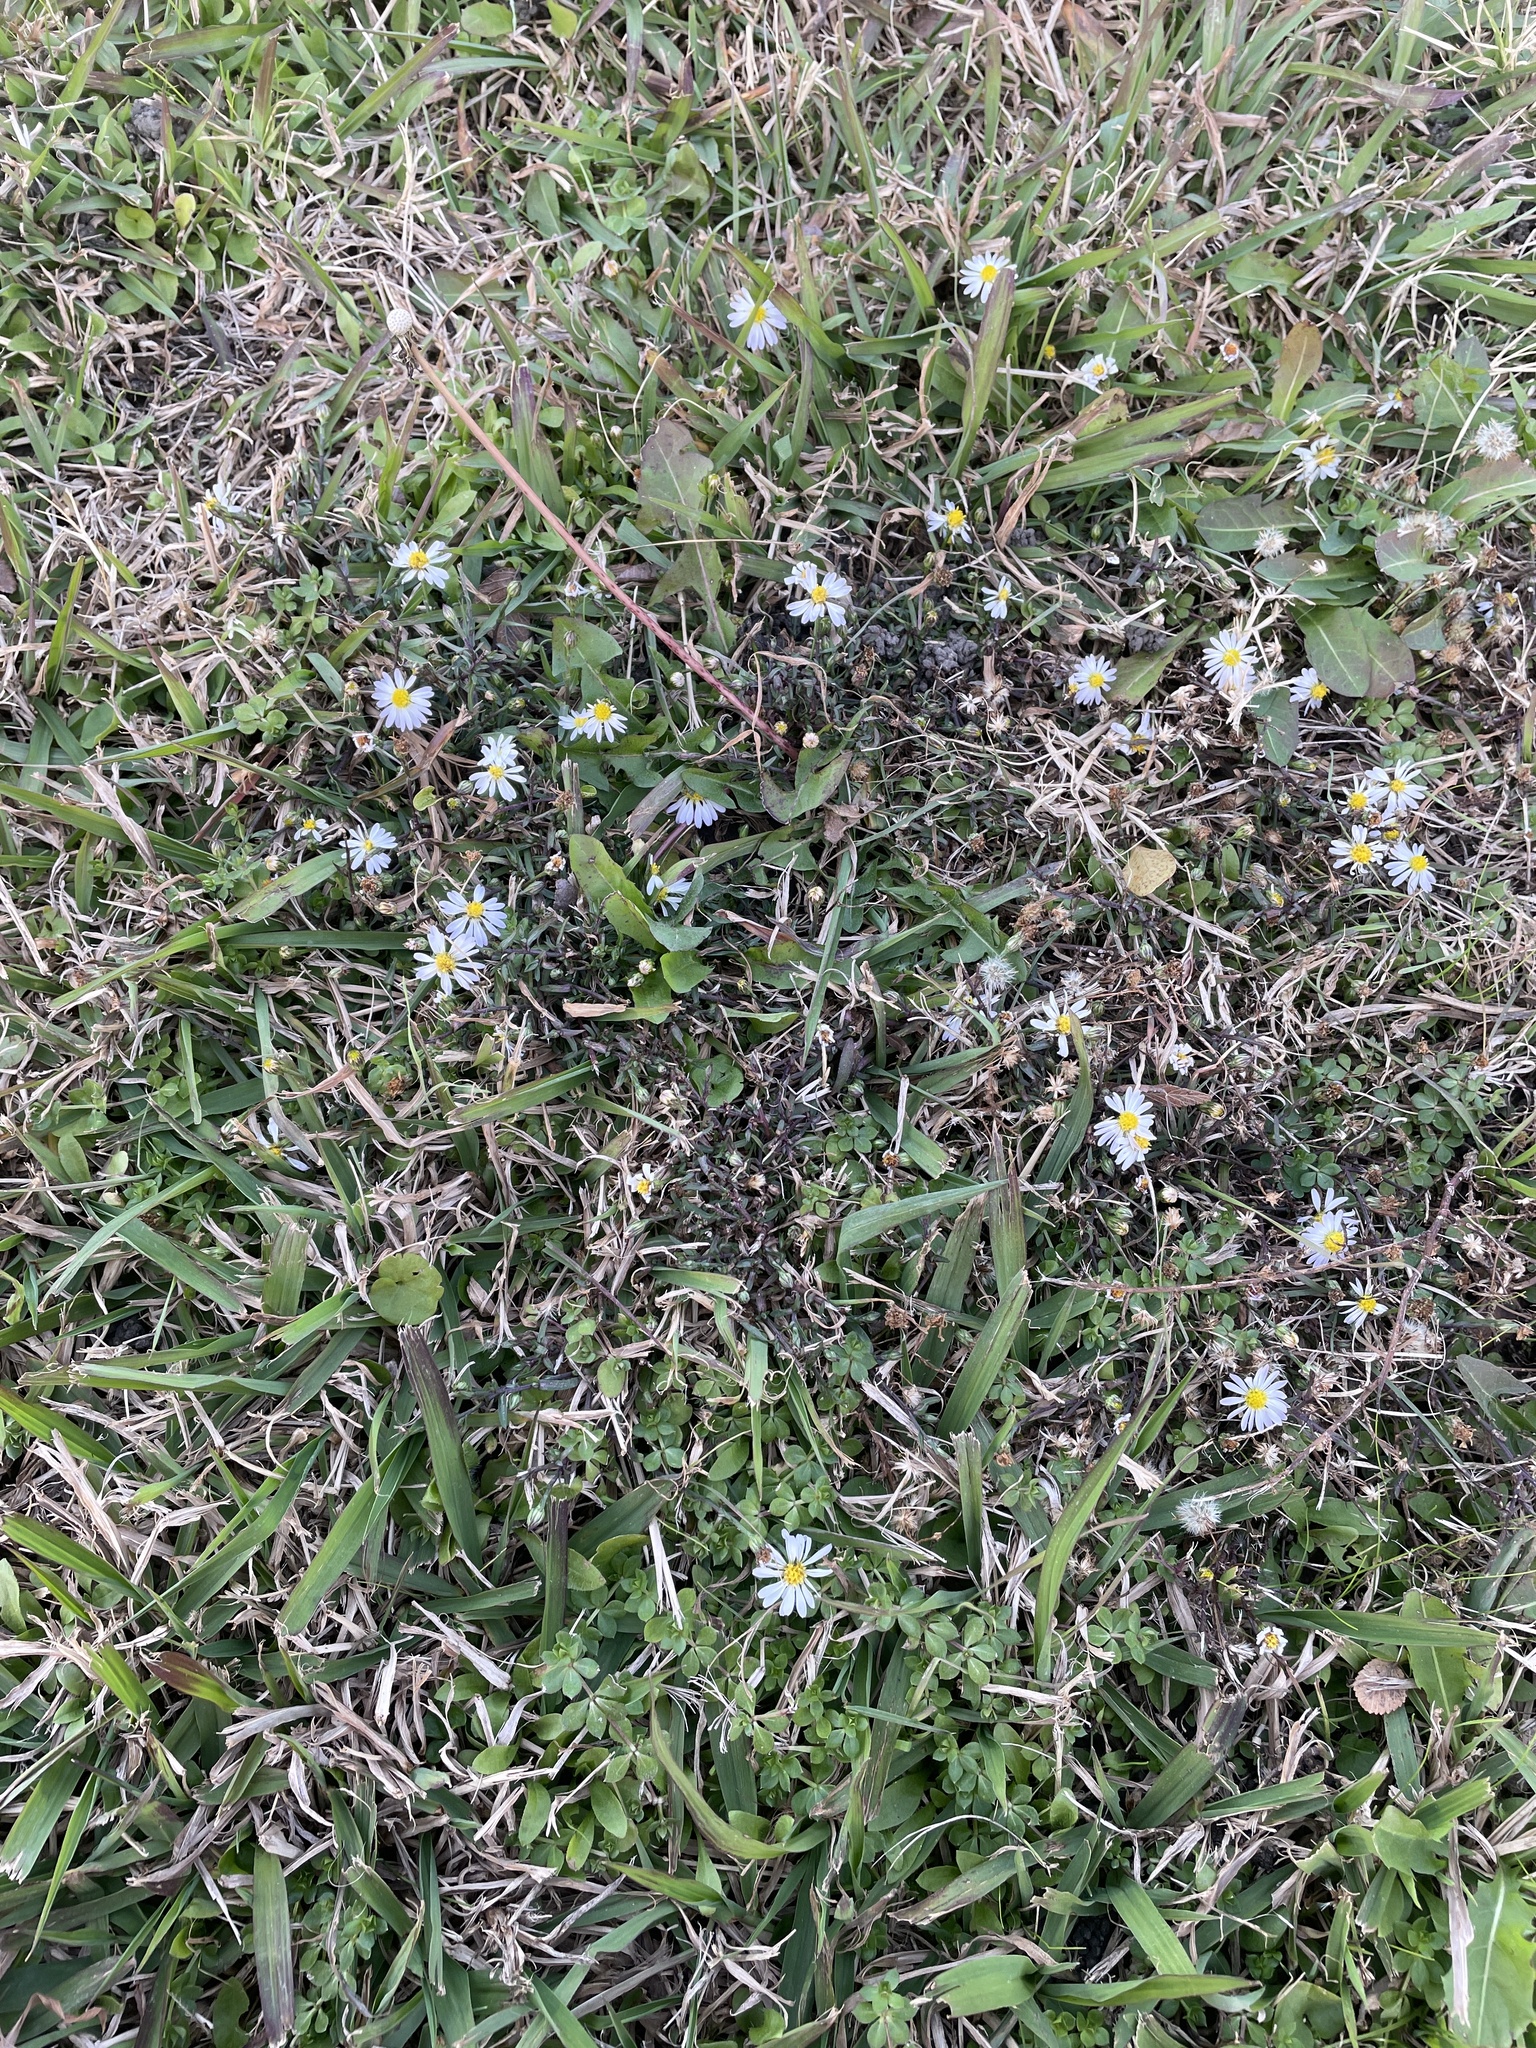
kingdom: Plantae
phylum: Tracheophyta
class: Magnoliopsida
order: Asterales
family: Asteraceae
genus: Symphyotrichum
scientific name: Symphyotrichum divaricatum
